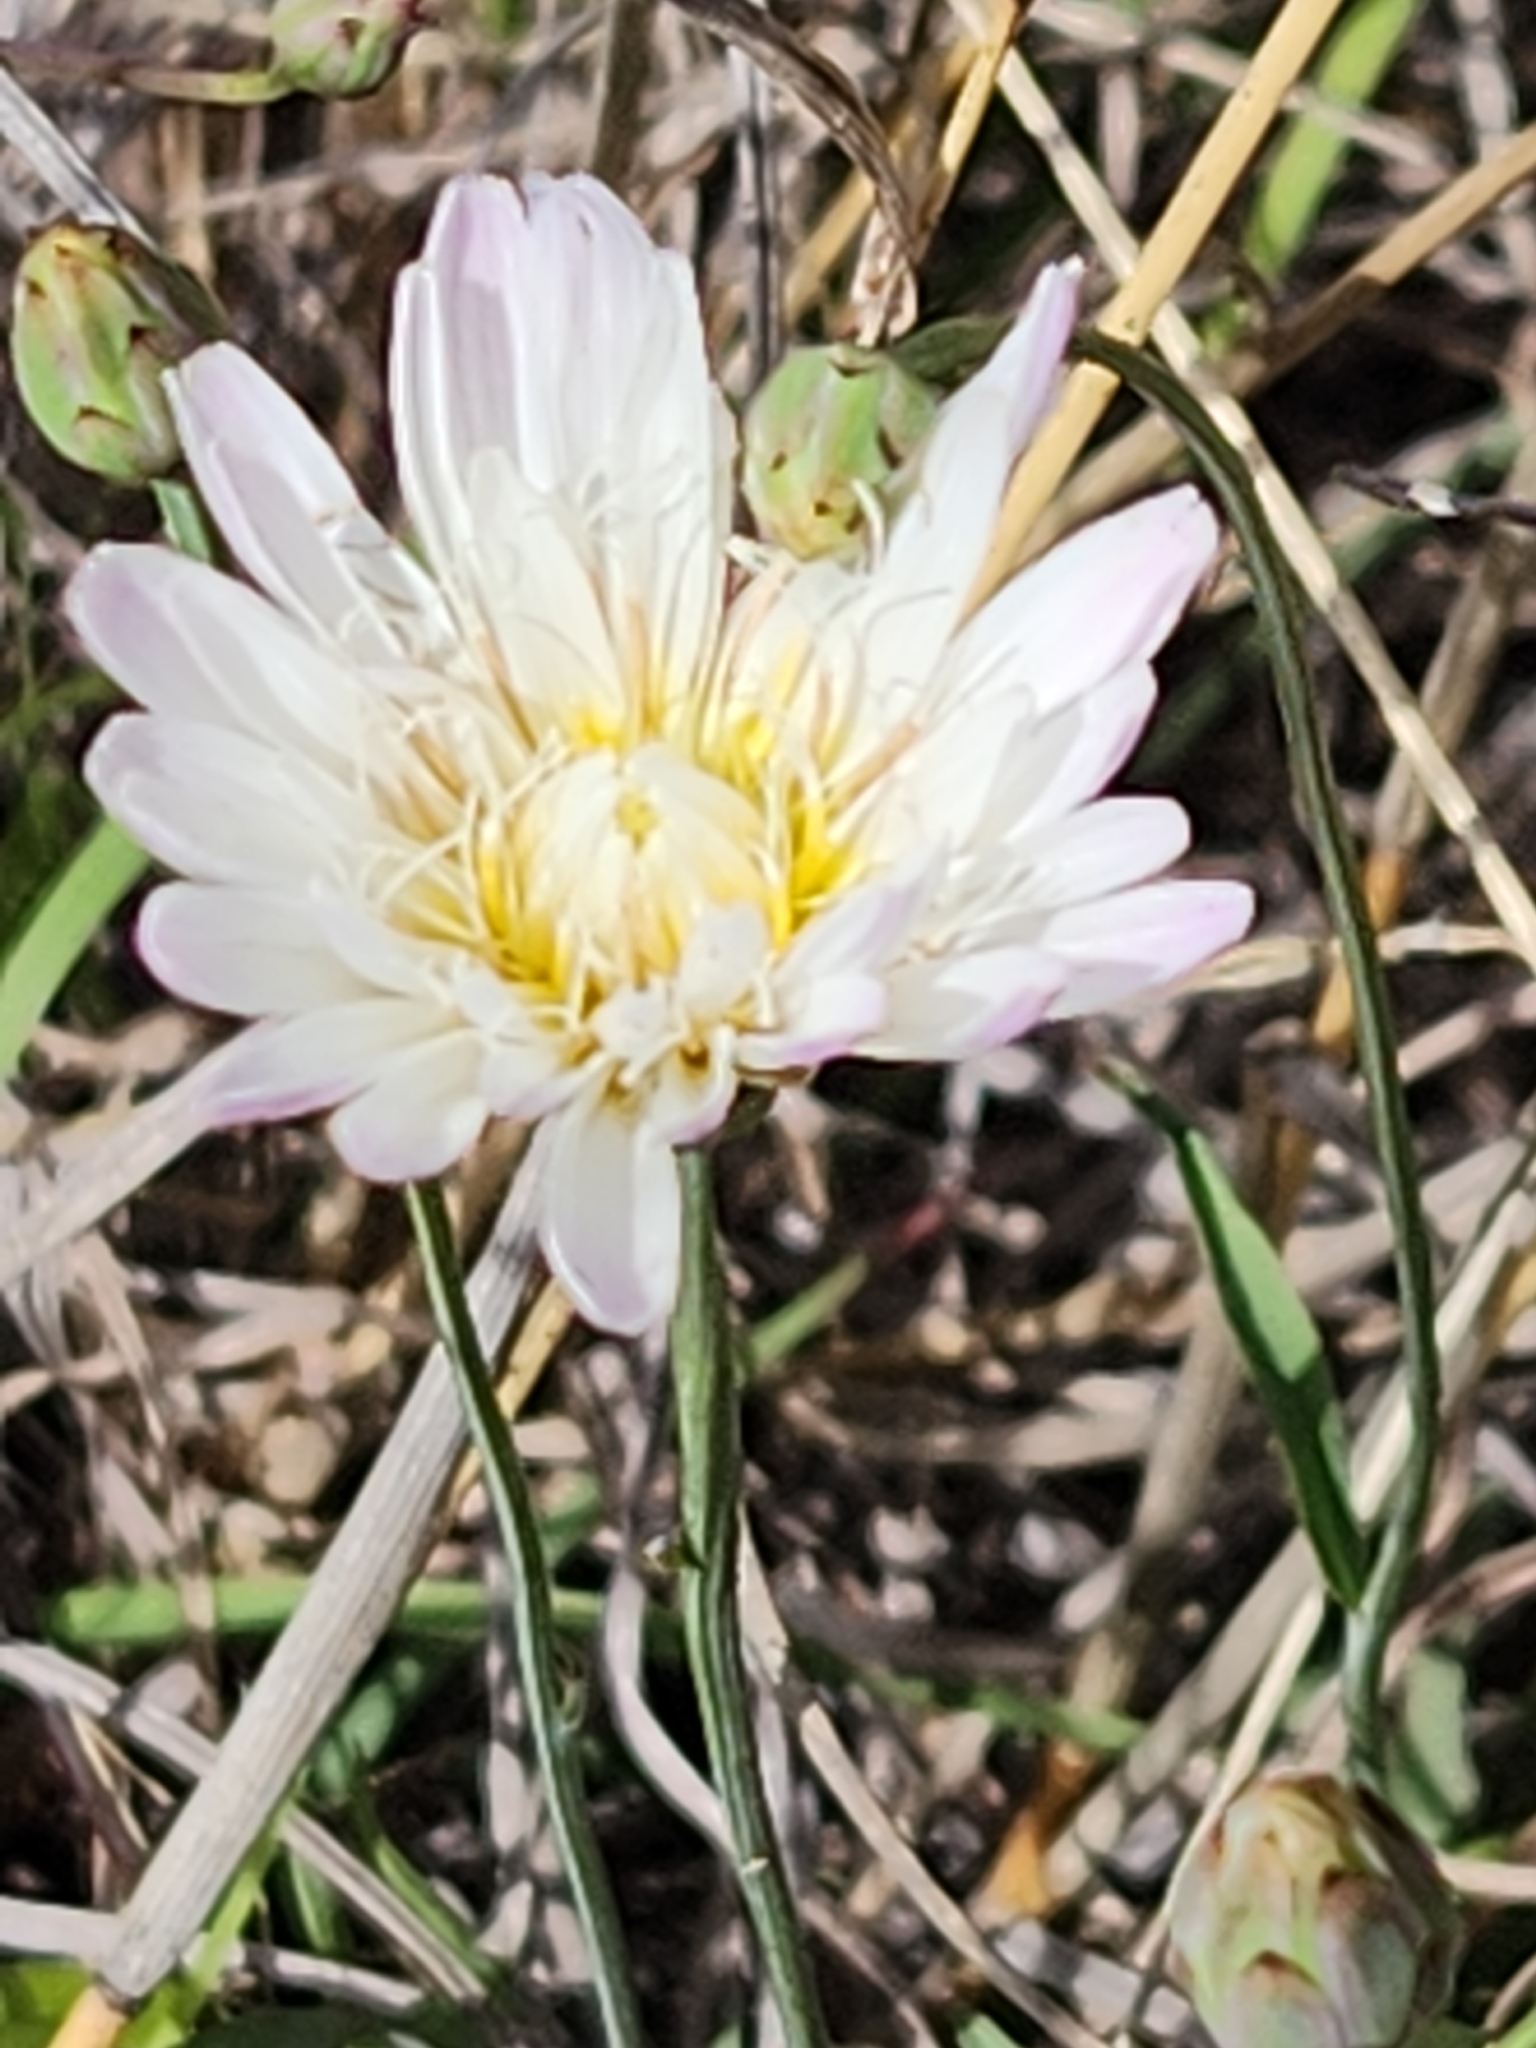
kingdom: Plantae
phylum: Tracheophyta
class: Magnoliopsida
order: Asterales
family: Asteraceae
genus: Pinaropappus
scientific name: Pinaropappus roseus
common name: Rock-lettuce
